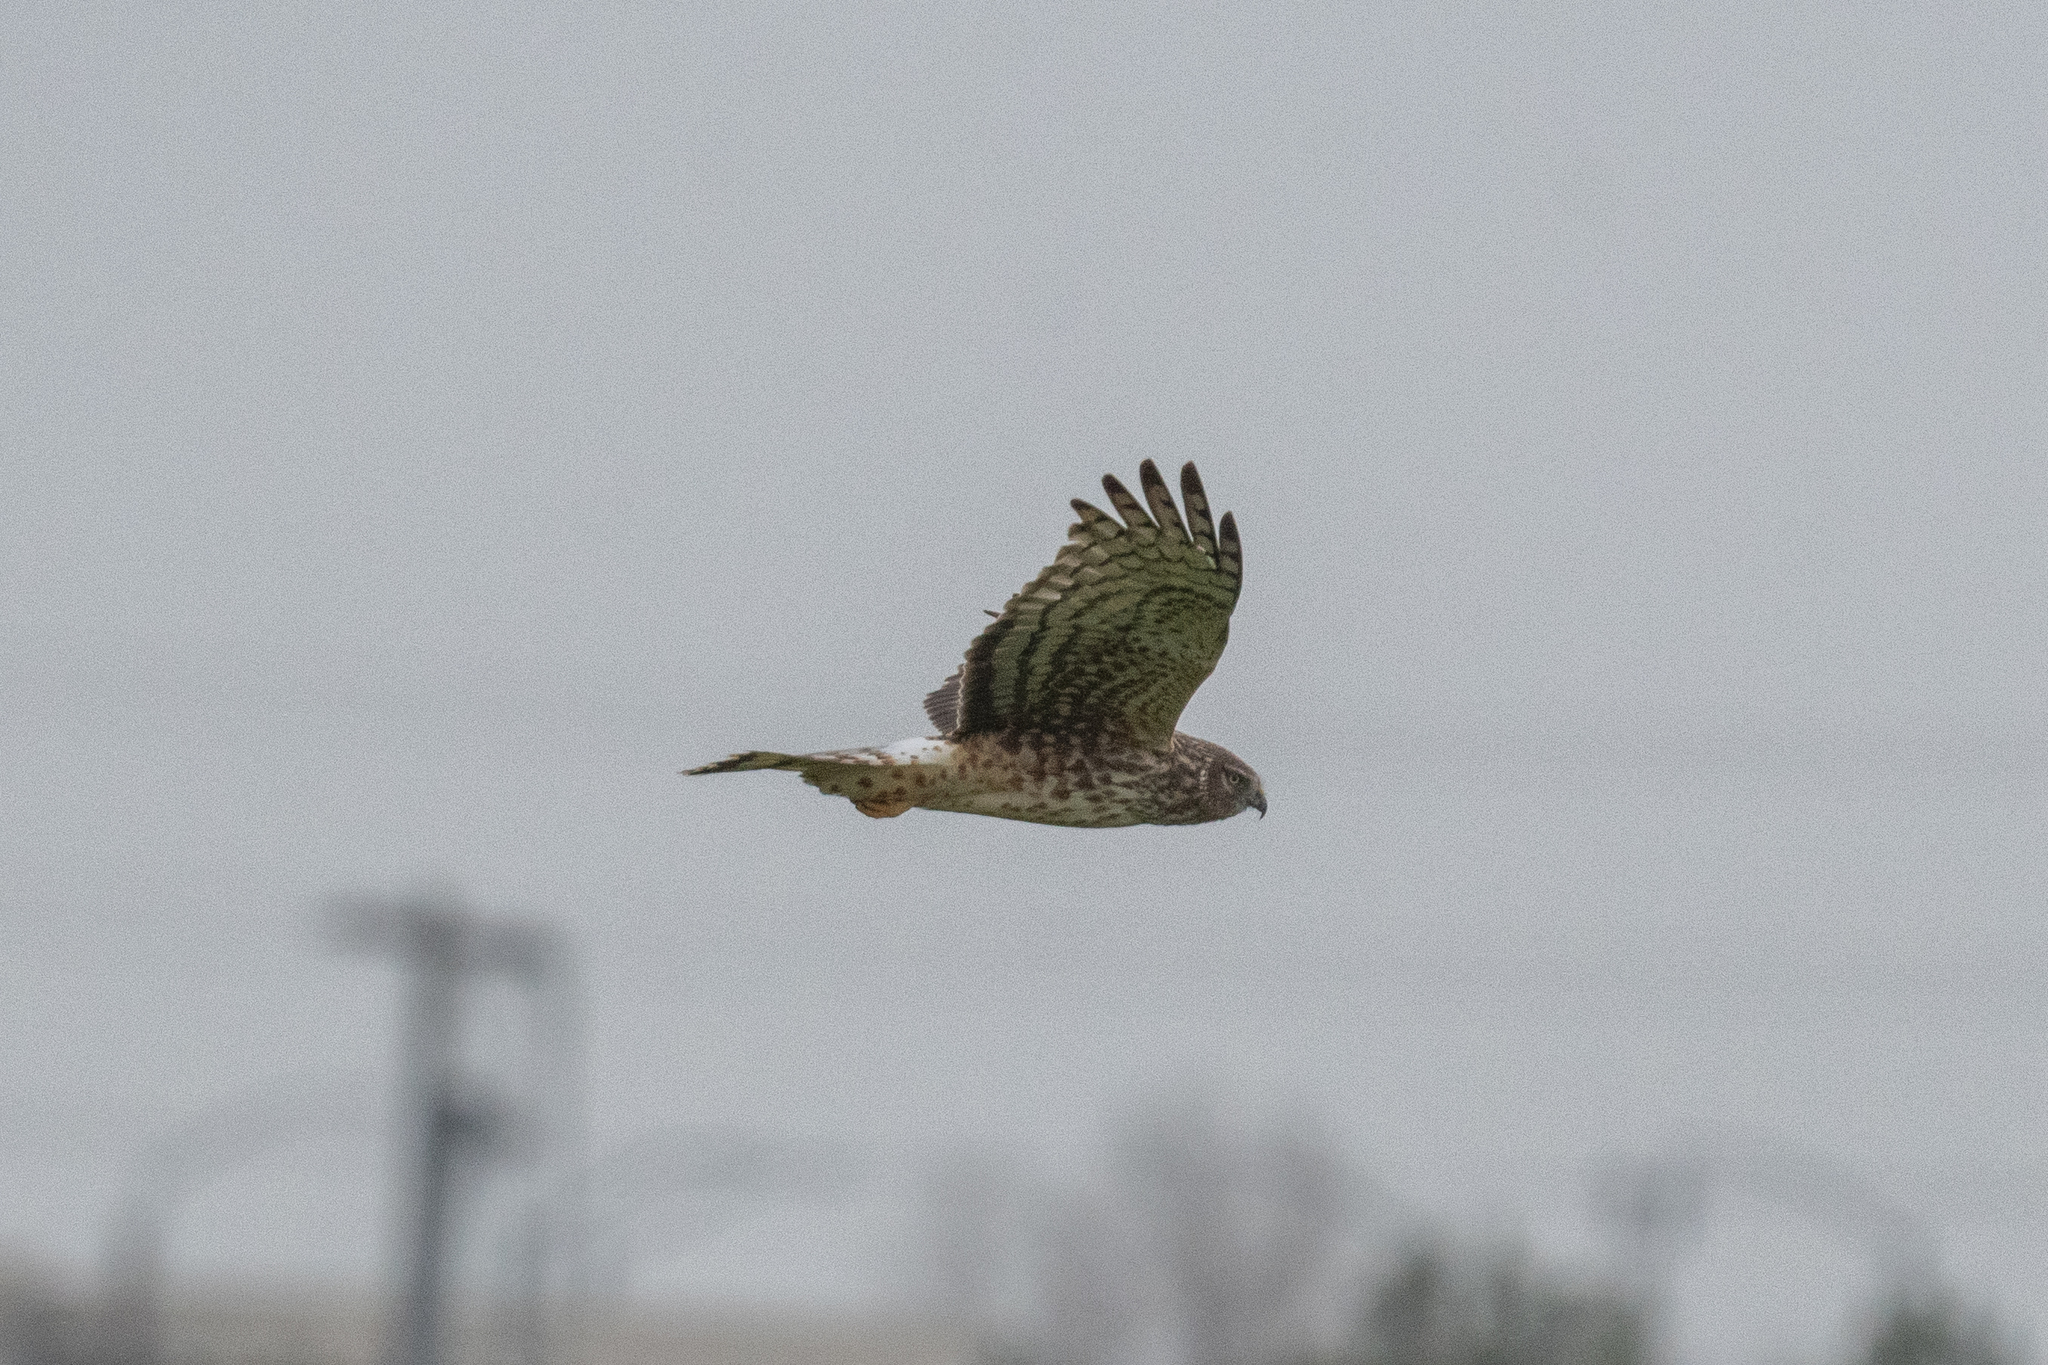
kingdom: Animalia
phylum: Chordata
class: Aves
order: Accipitriformes
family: Accipitridae
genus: Circus
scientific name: Circus cyaneus
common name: Hen harrier
